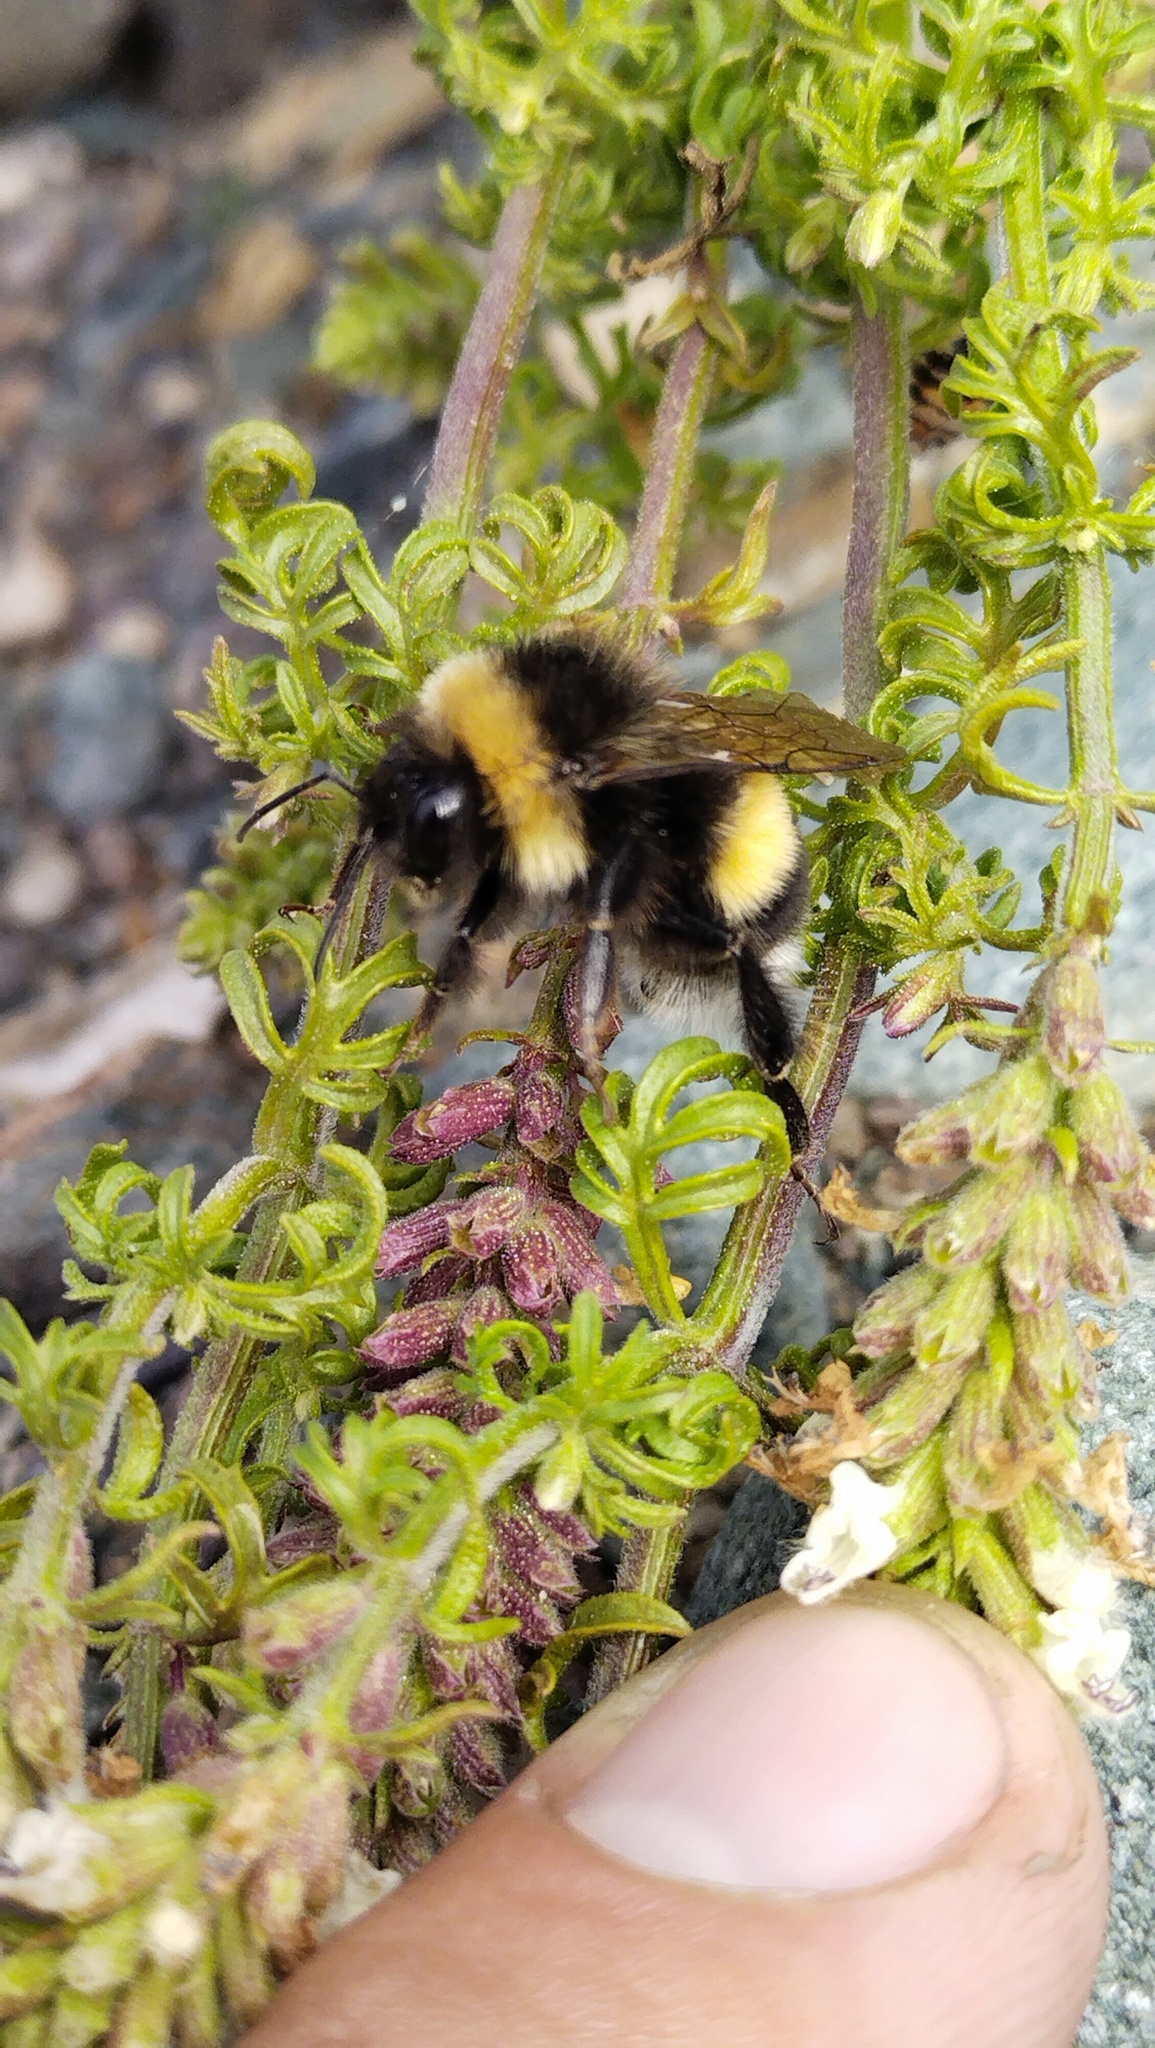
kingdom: Animalia
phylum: Arthropoda
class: Insecta
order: Hymenoptera
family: Apidae
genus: Bombus
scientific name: Bombus
